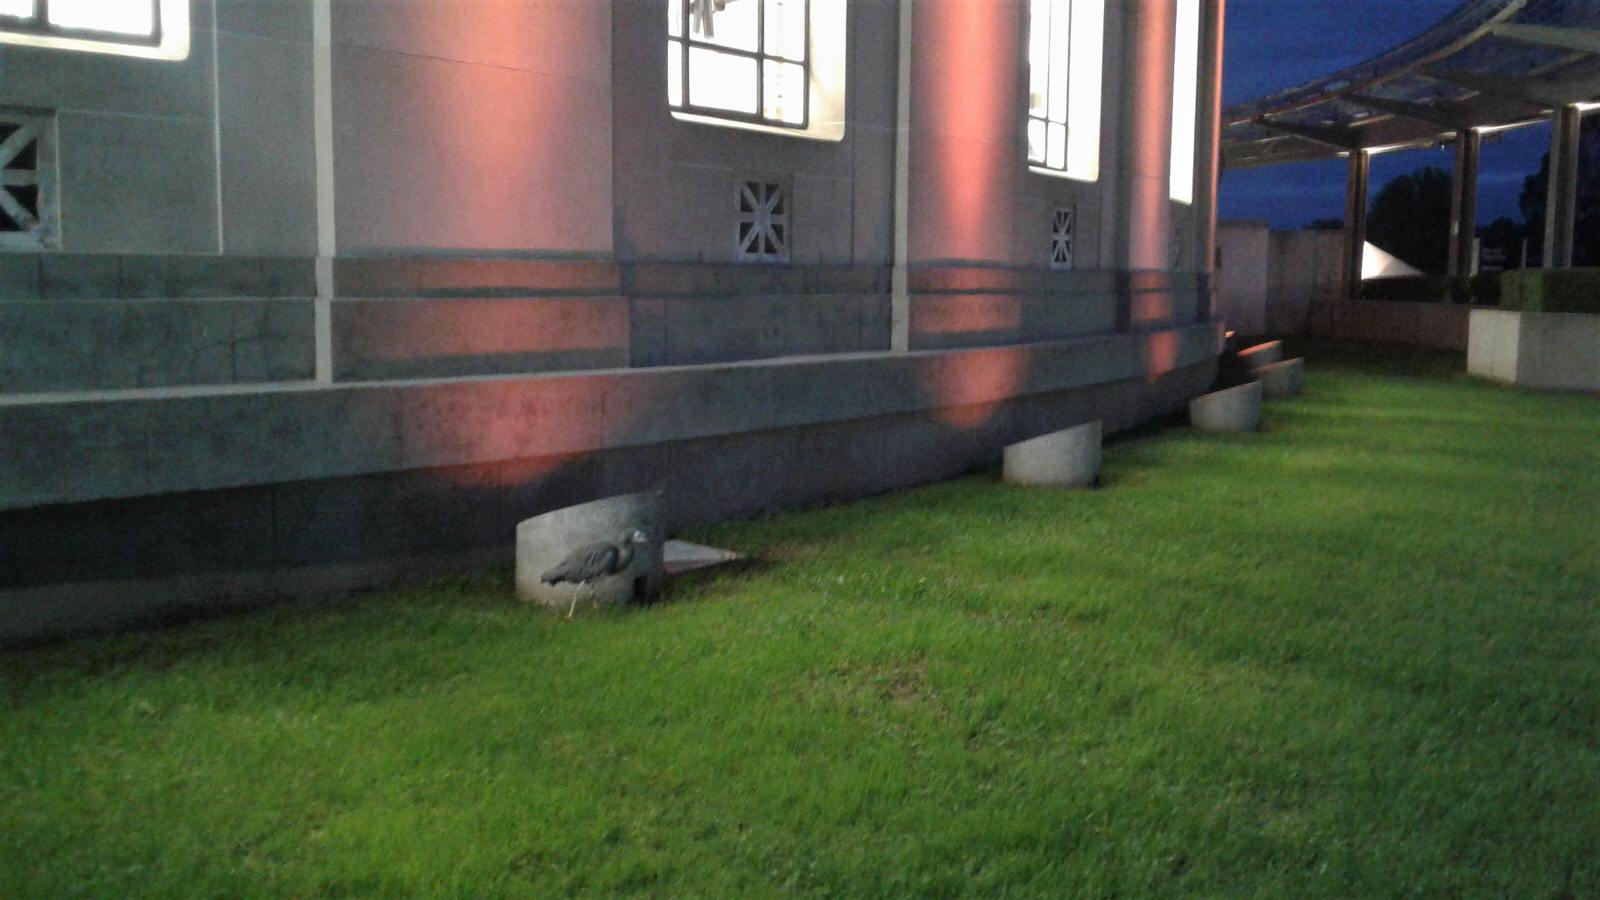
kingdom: Animalia
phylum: Chordata
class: Aves
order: Pelecaniformes
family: Ardeidae
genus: Egretta
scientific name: Egretta novaehollandiae
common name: White-faced heron
